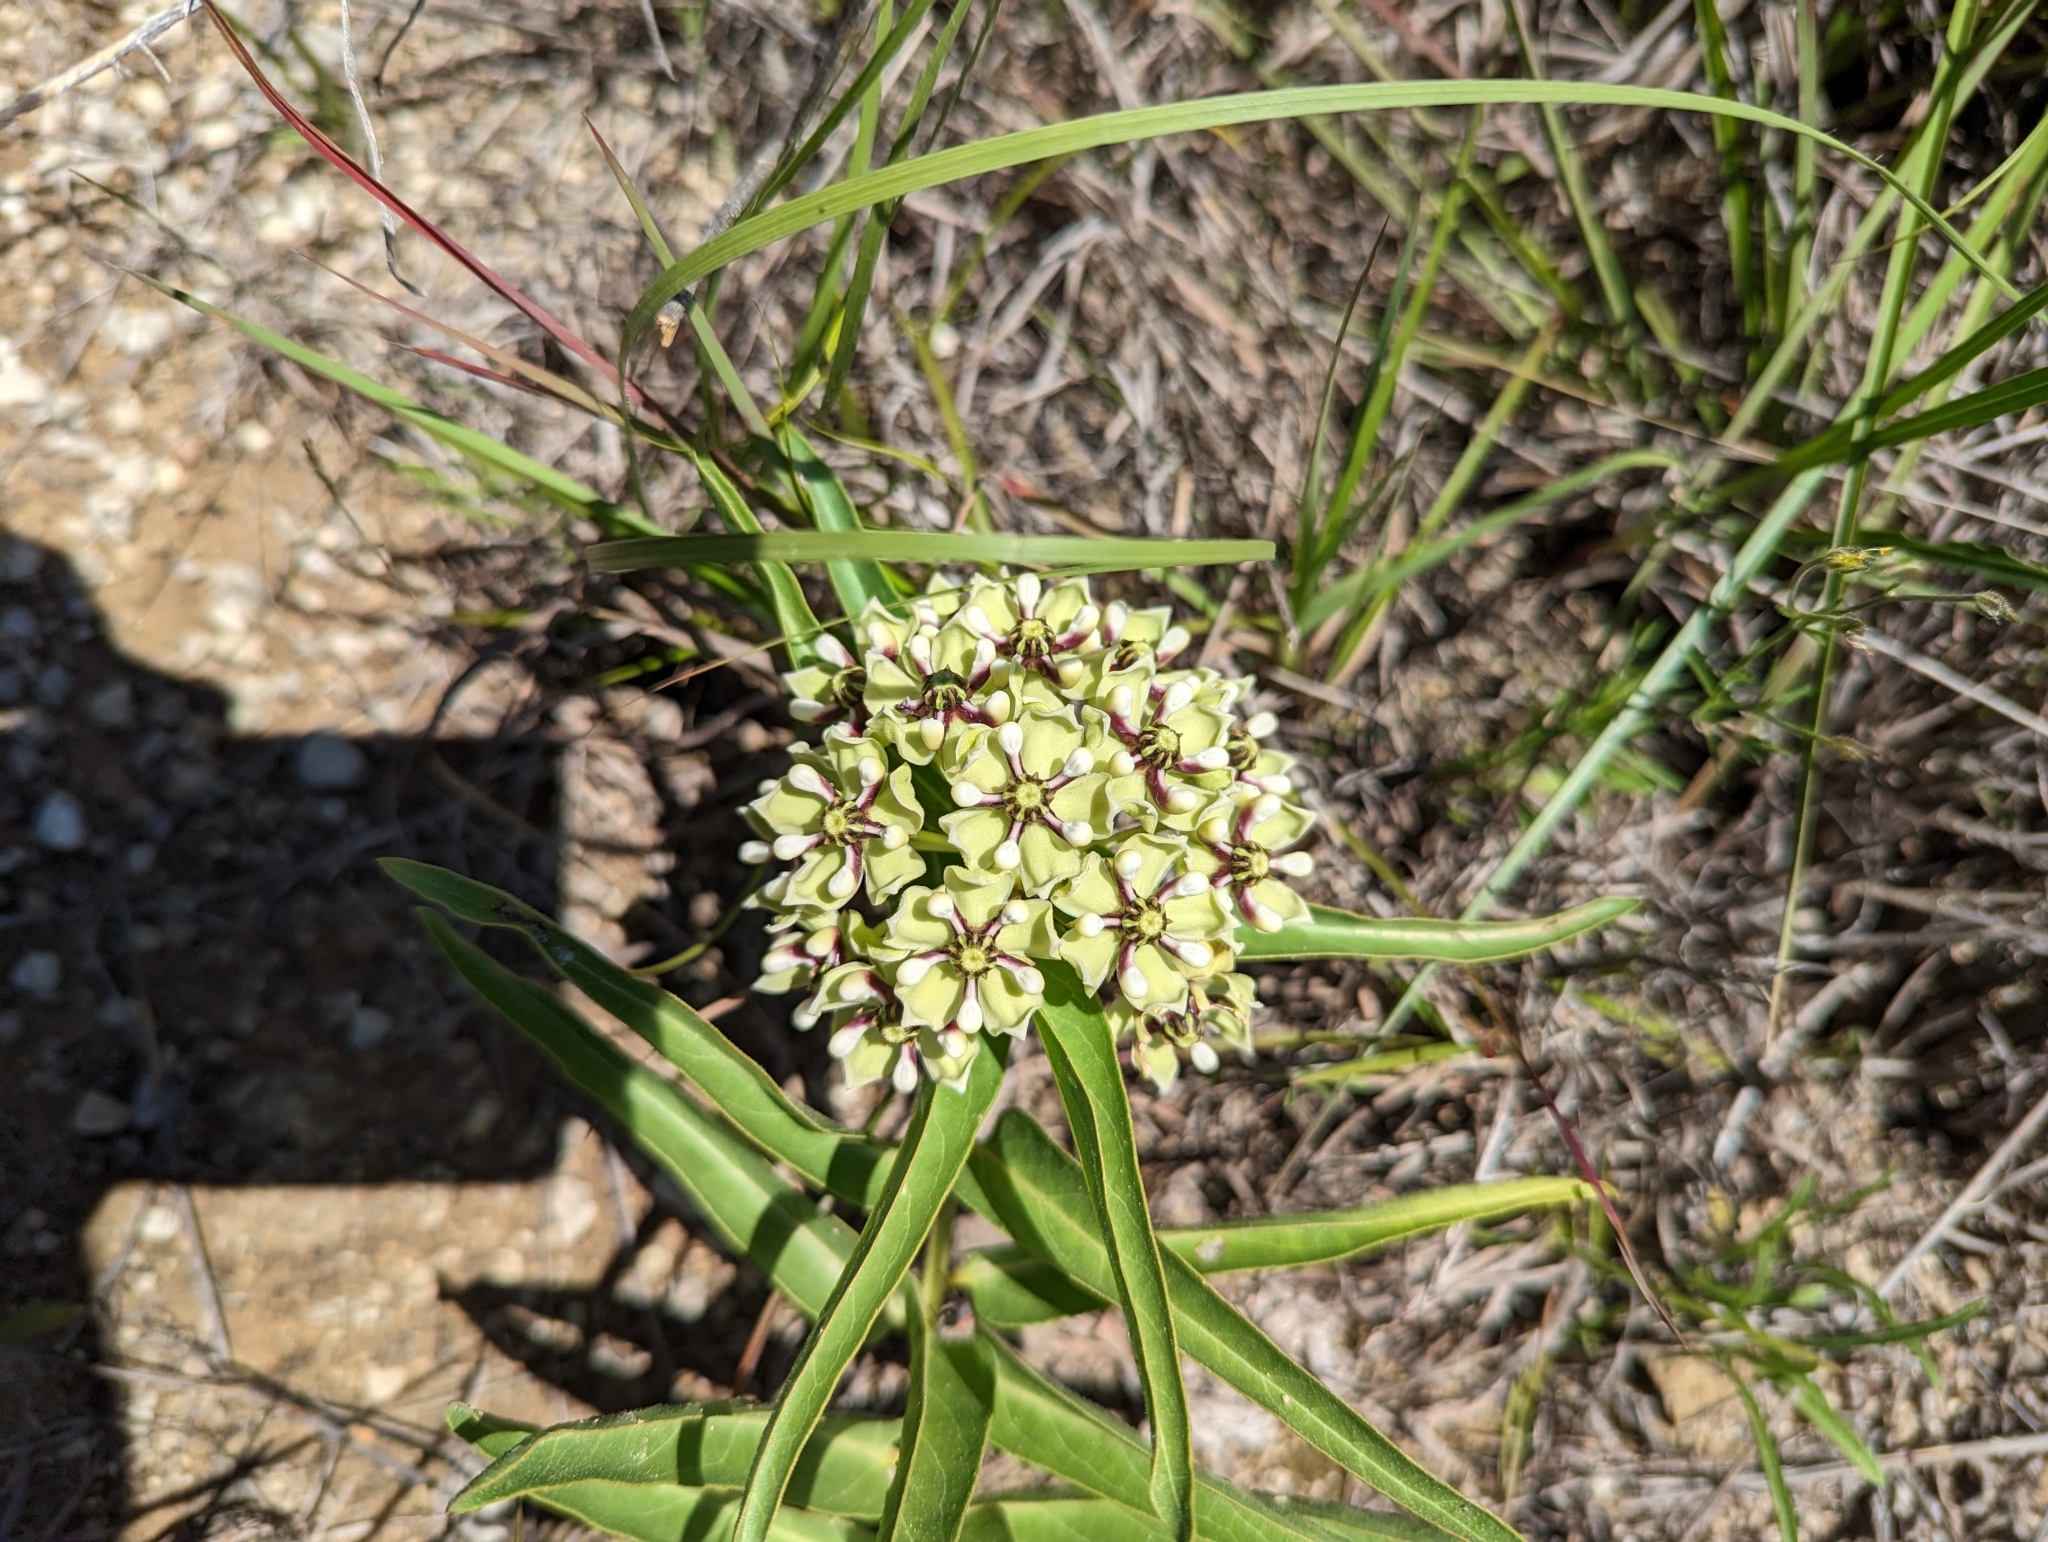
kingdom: Plantae
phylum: Tracheophyta
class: Magnoliopsida
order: Gentianales
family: Apocynaceae
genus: Asclepias
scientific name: Asclepias asperula
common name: Antelope horns
